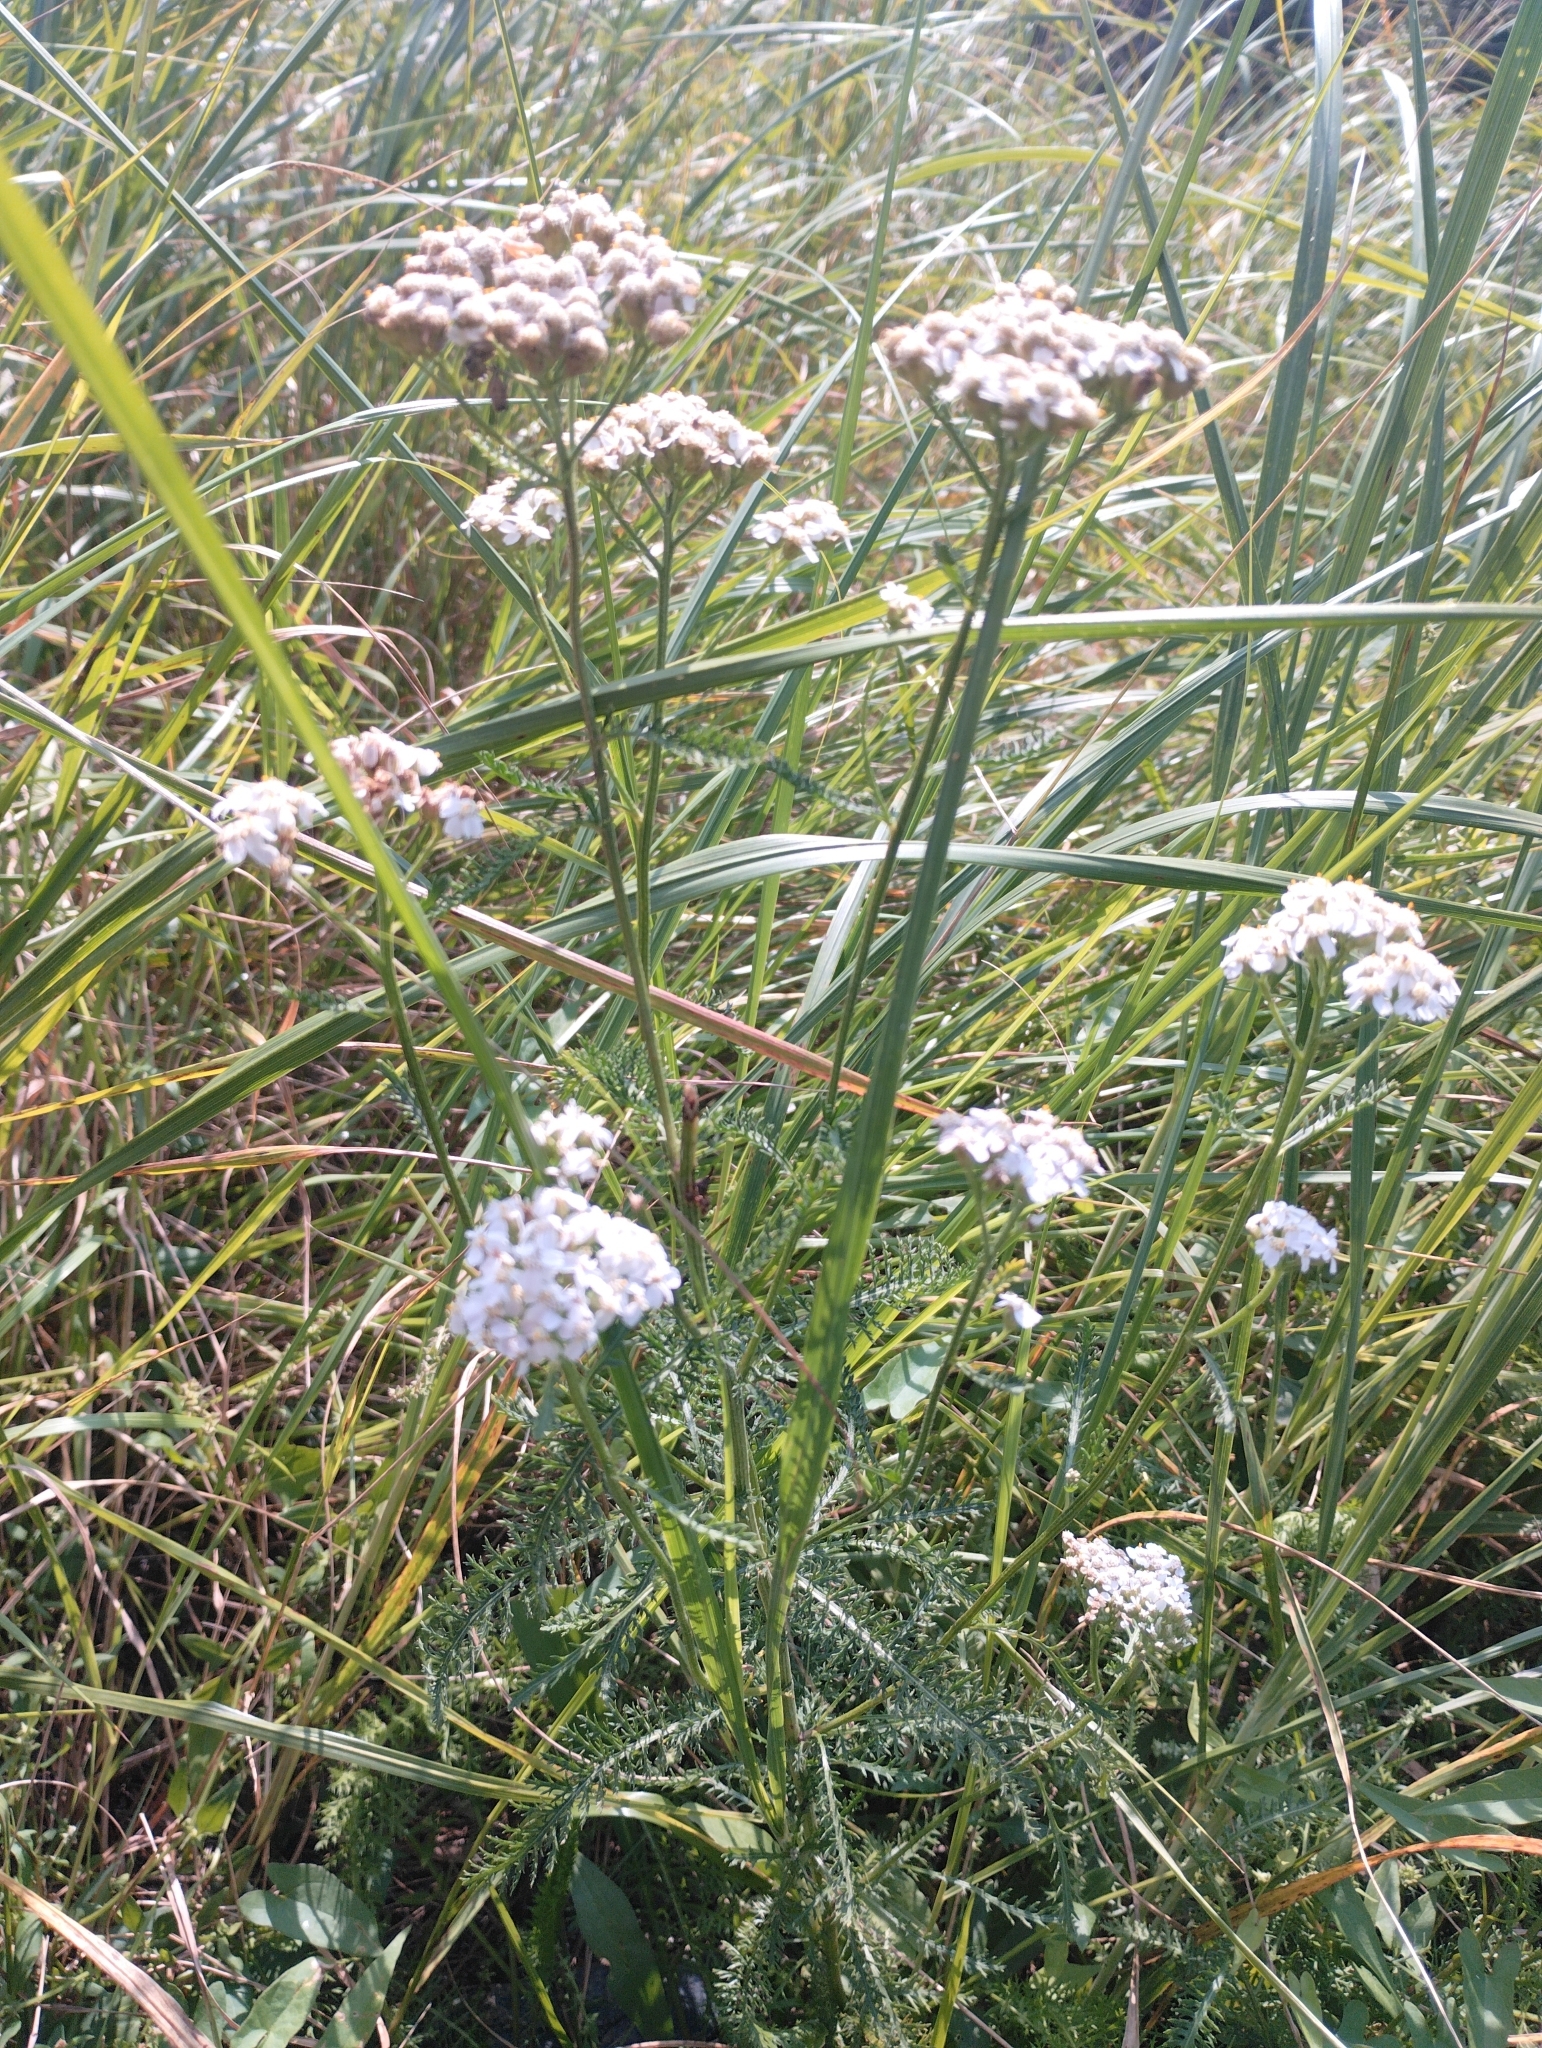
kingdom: Plantae
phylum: Tracheophyta
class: Magnoliopsida
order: Asterales
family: Asteraceae
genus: Achillea
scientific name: Achillea millefolium
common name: Yarrow
